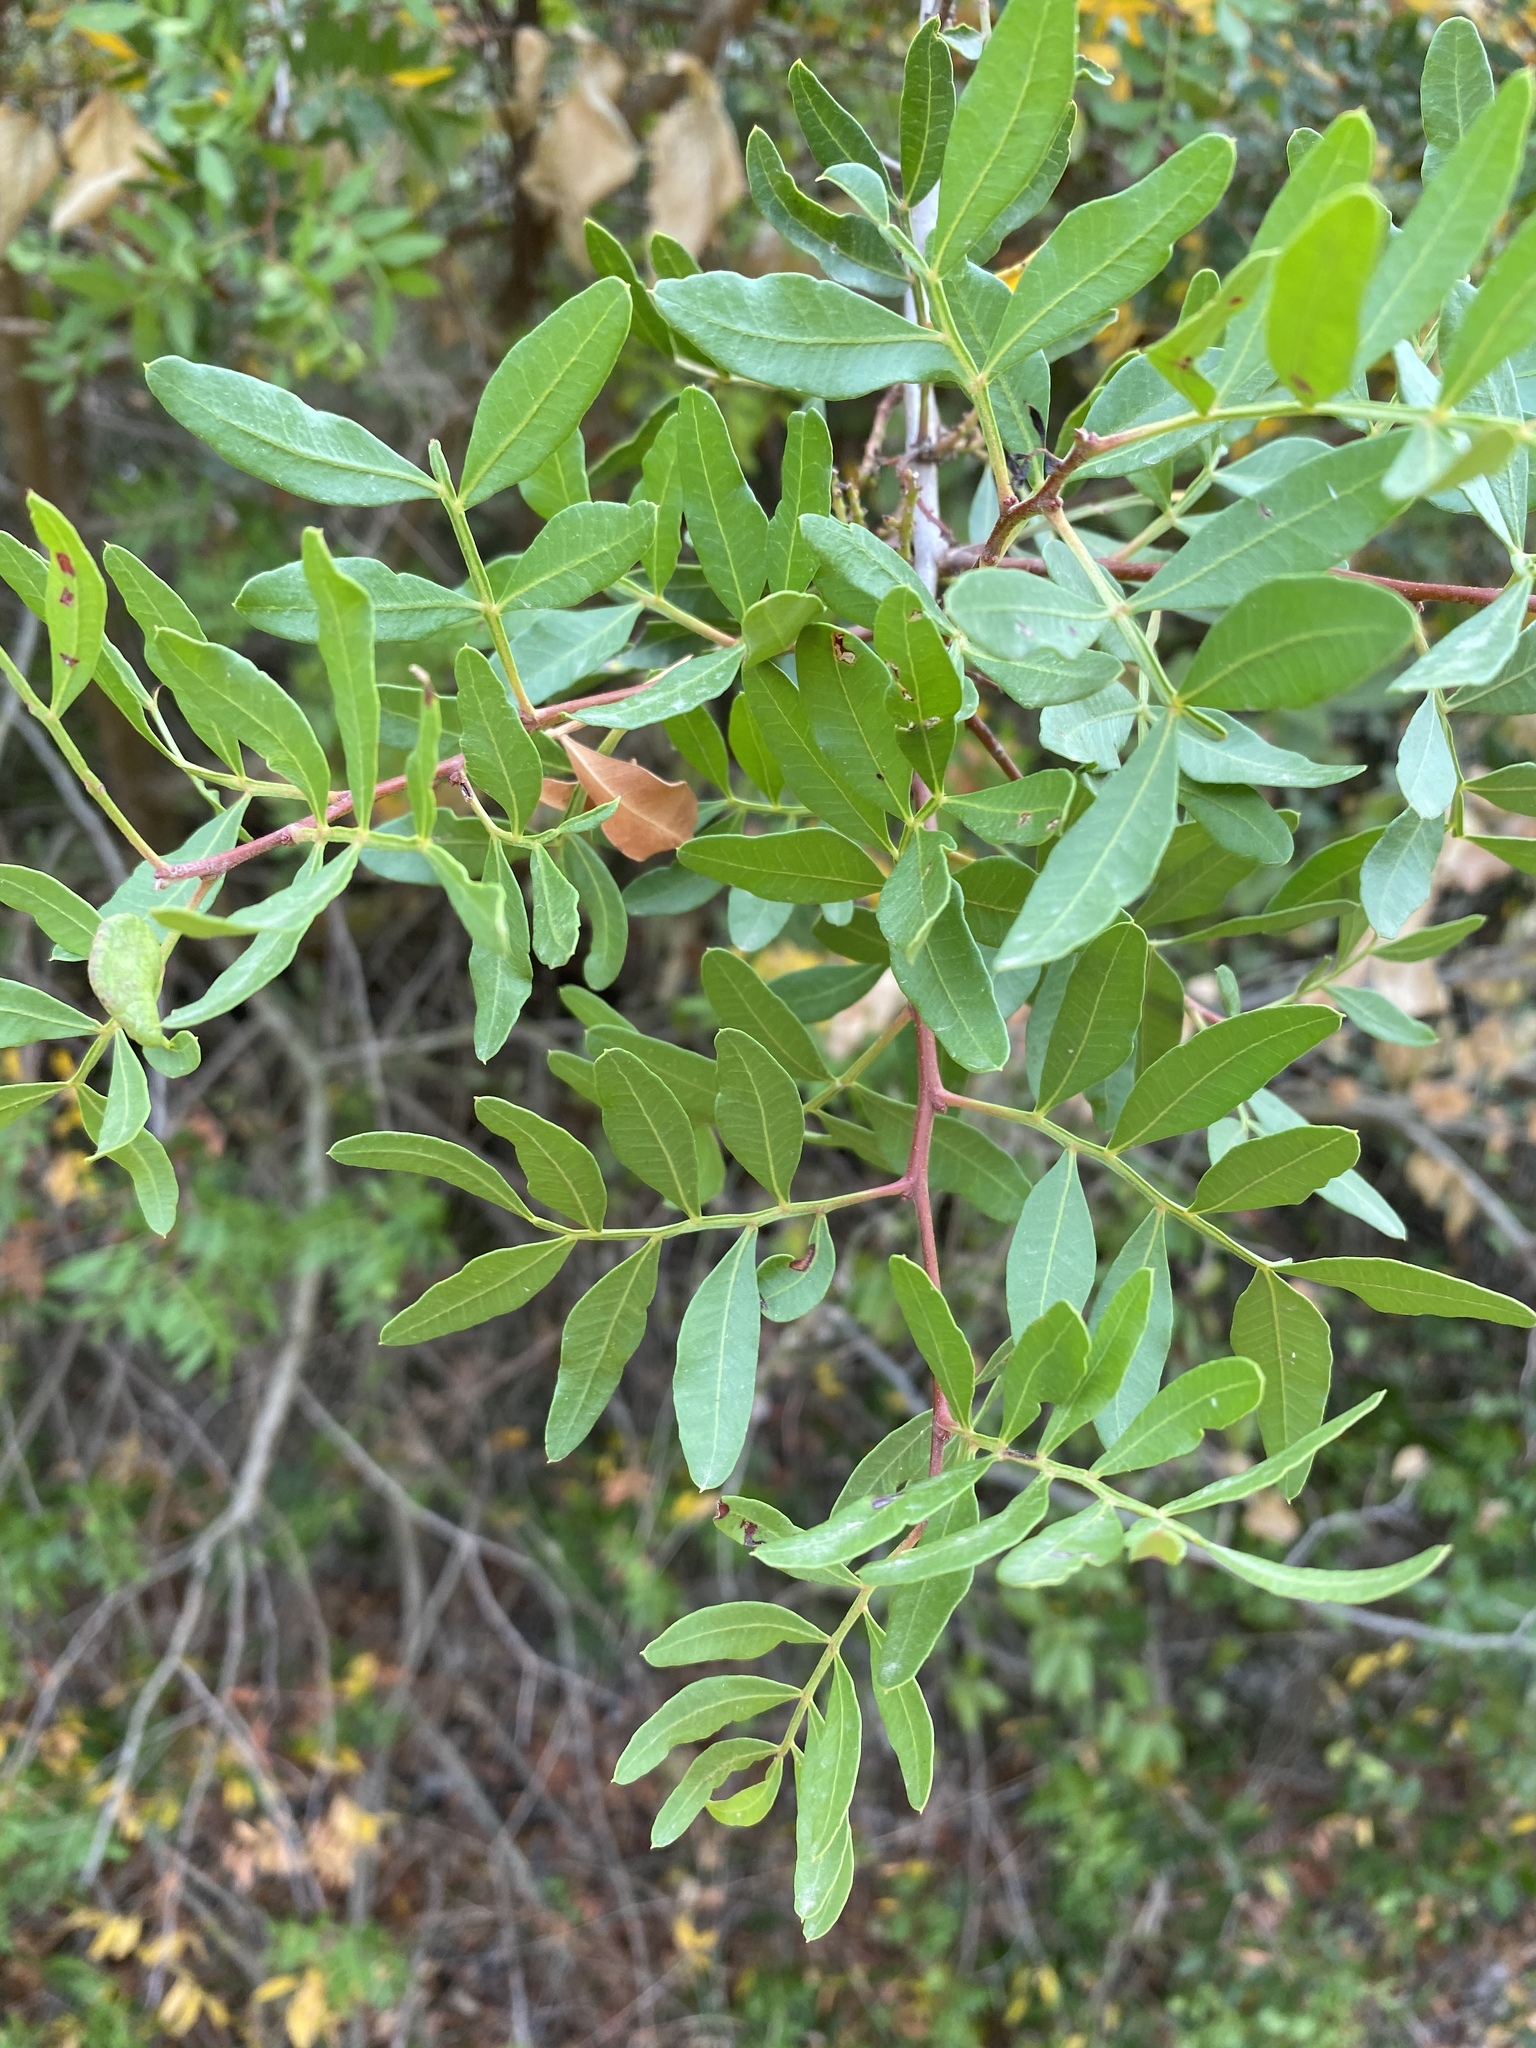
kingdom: Plantae
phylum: Tracheophyta
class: Magnoliopsida
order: Sapindales
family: Anacardiaceae
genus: Pistacia
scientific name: Pistacia lentiscus
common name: Lentisk
